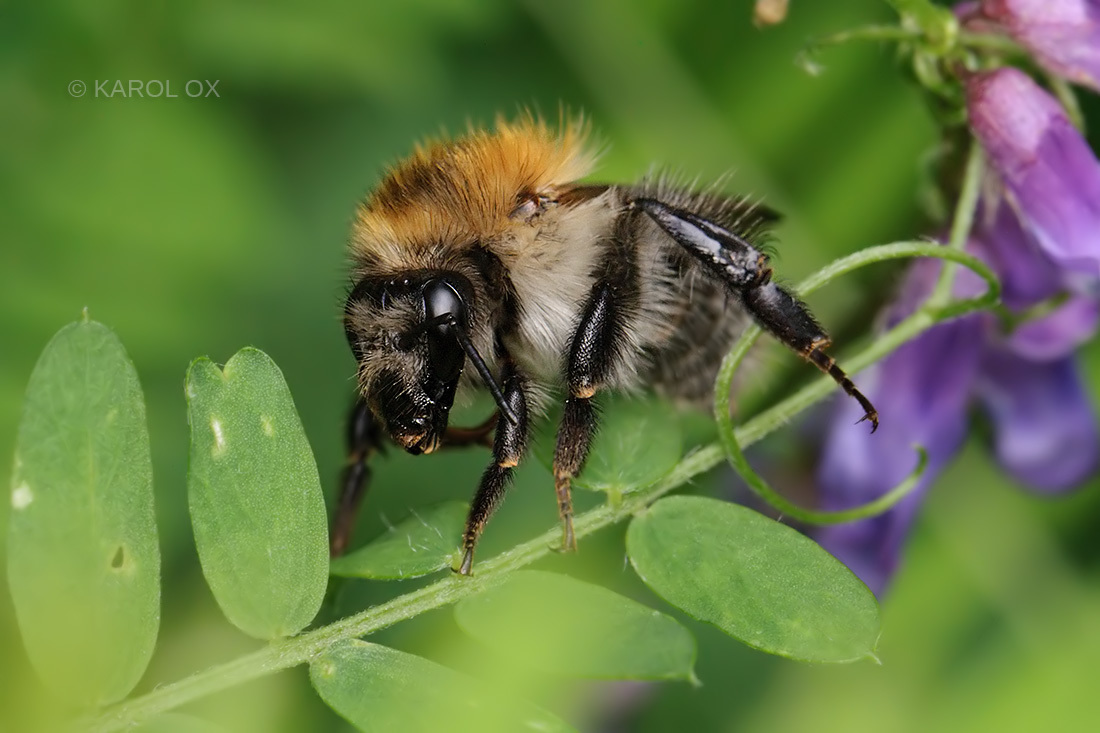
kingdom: Animalia
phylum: Arthropoda
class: Insecta
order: Hymenoptera
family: Apidae
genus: Bombus
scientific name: Bombus pascuorum
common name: Common carder bee
